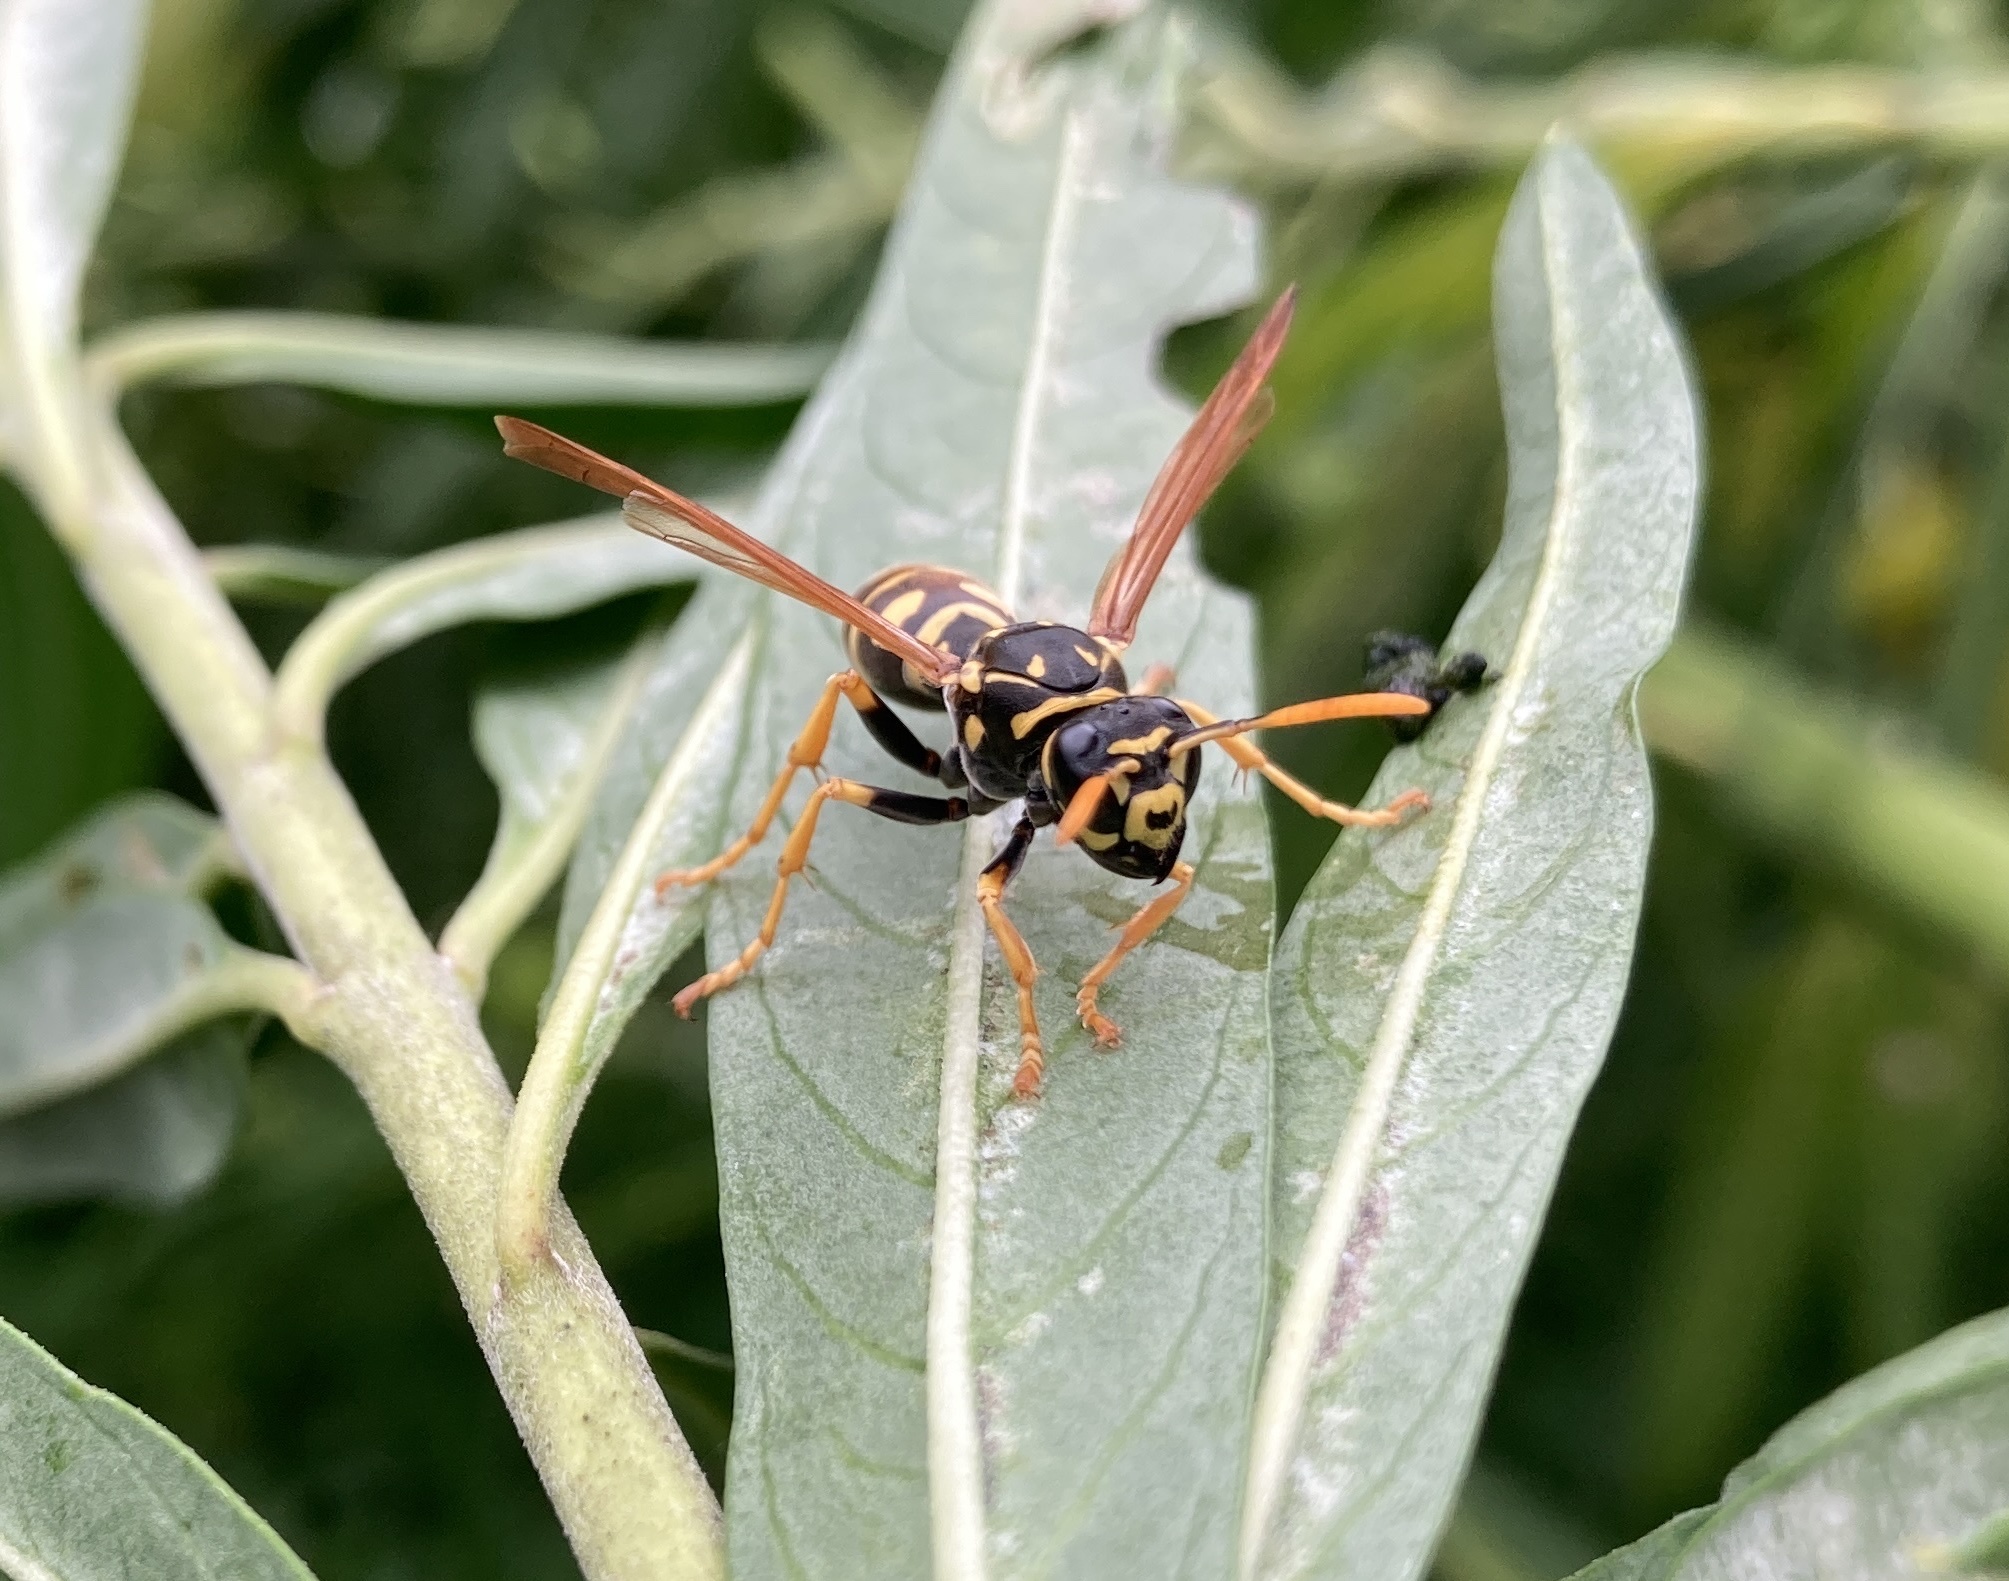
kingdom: Animalia
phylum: Arthropoda
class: Insecta
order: Hymenoptera
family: Eumenidae
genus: Polistes
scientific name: Polistes dominula
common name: Paper wasp
